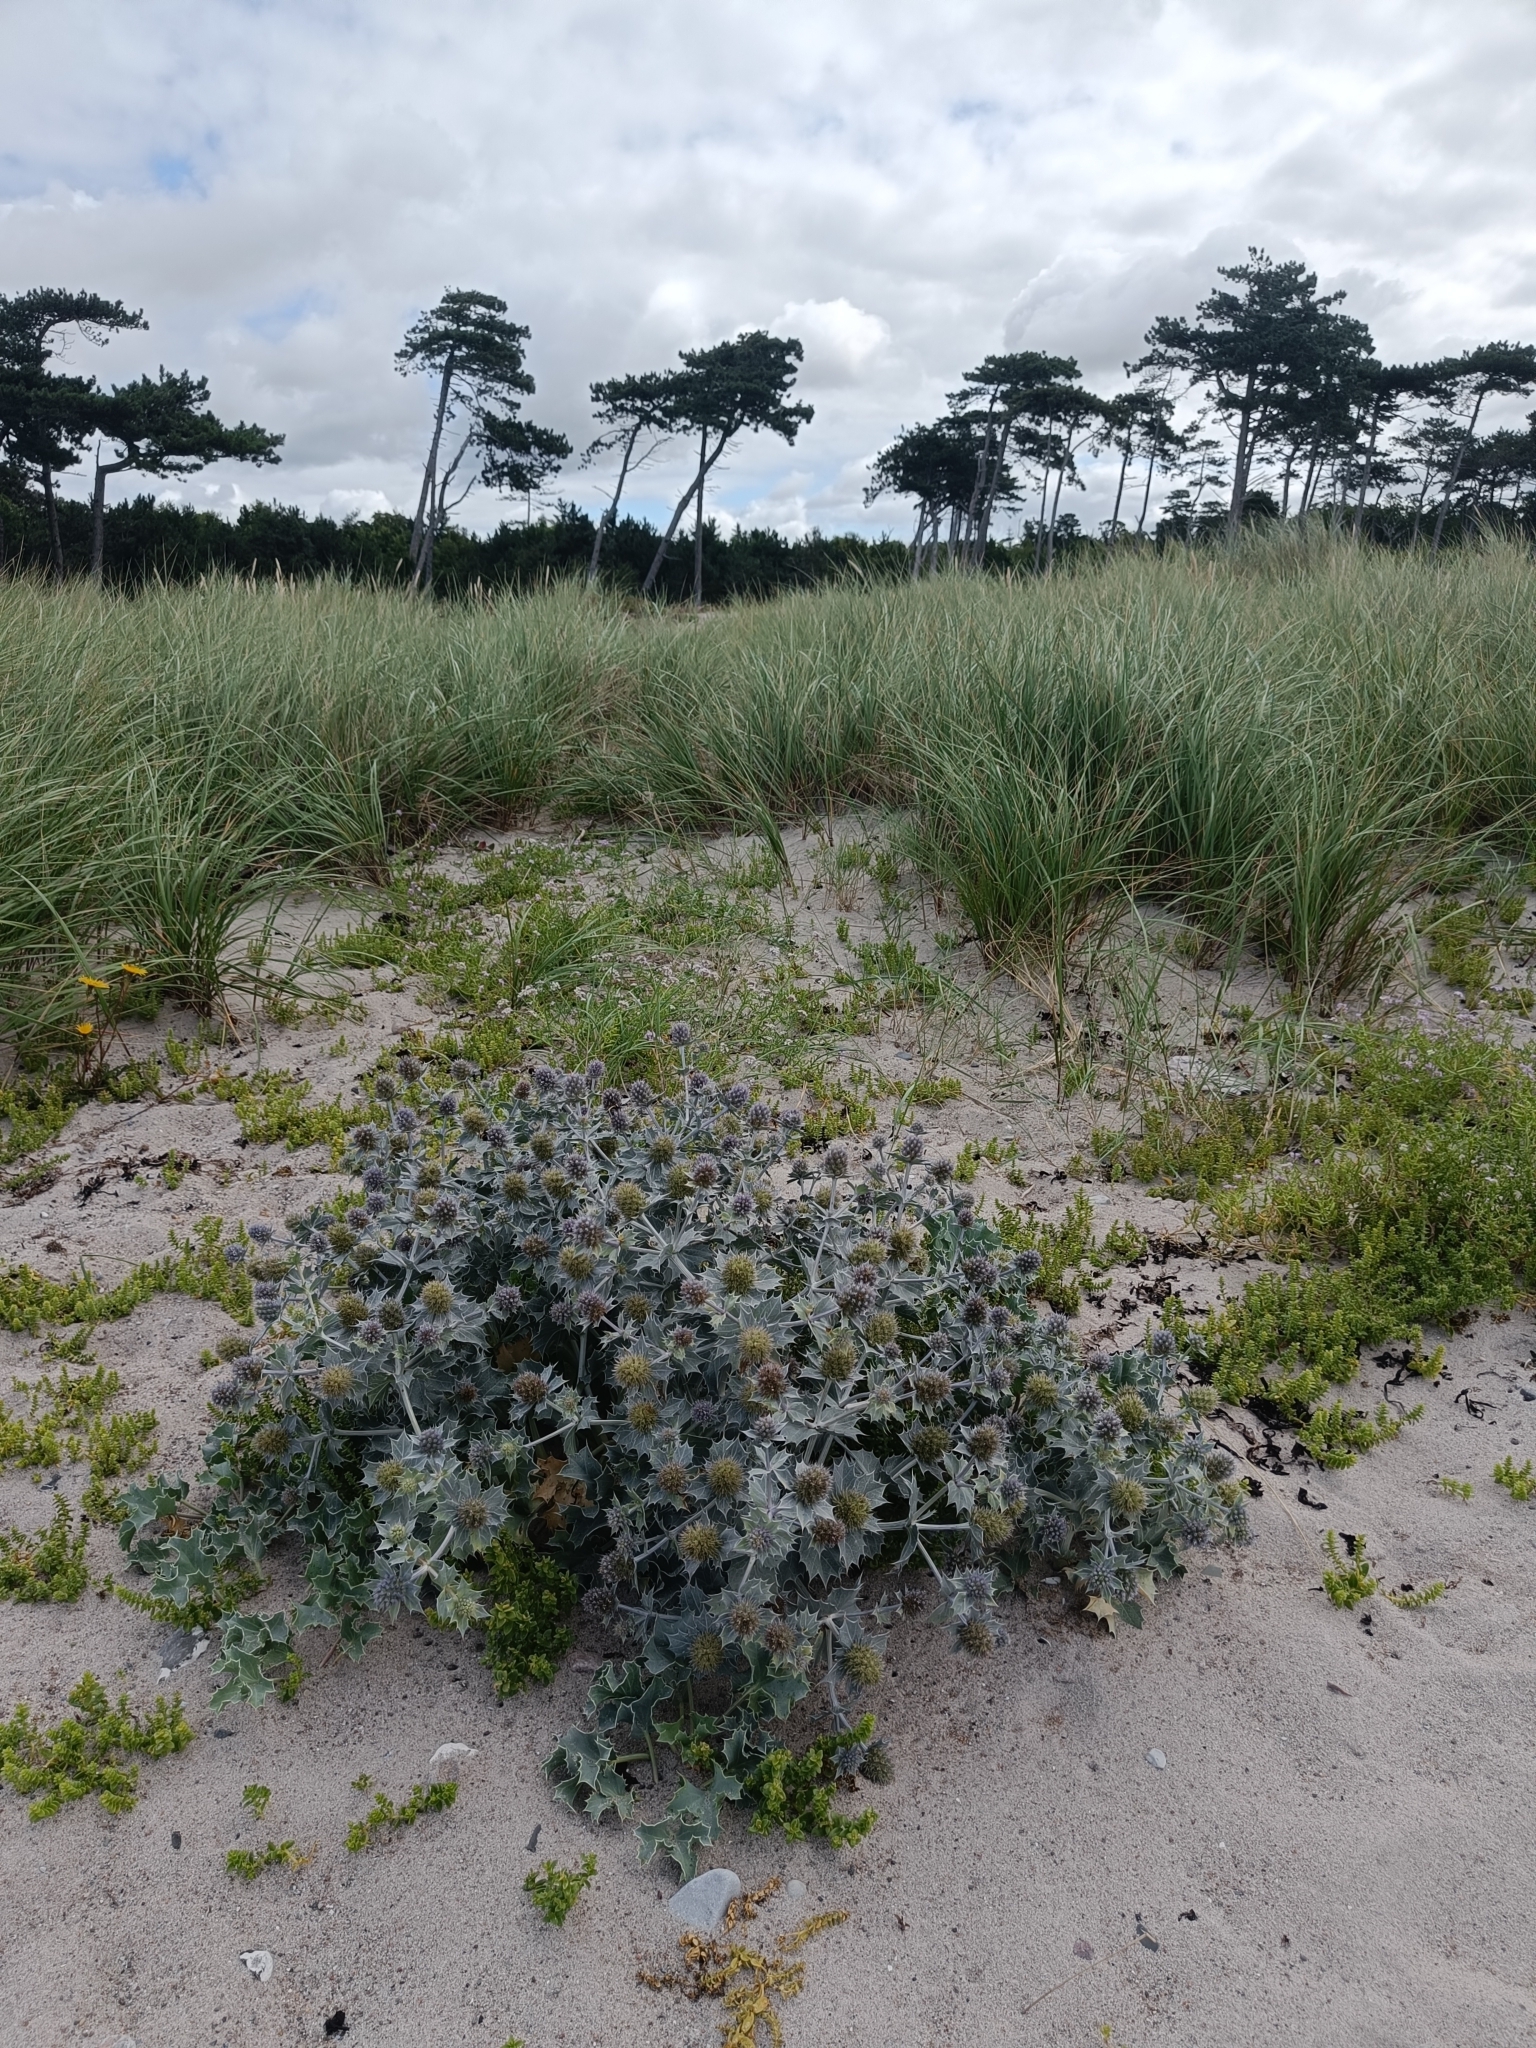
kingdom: Plantae
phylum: Tracheophyta
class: Magnoliopsida
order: Apiales
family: Apiaceae
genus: Eryngium
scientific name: Eryngium maritimum
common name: Sea-holly
